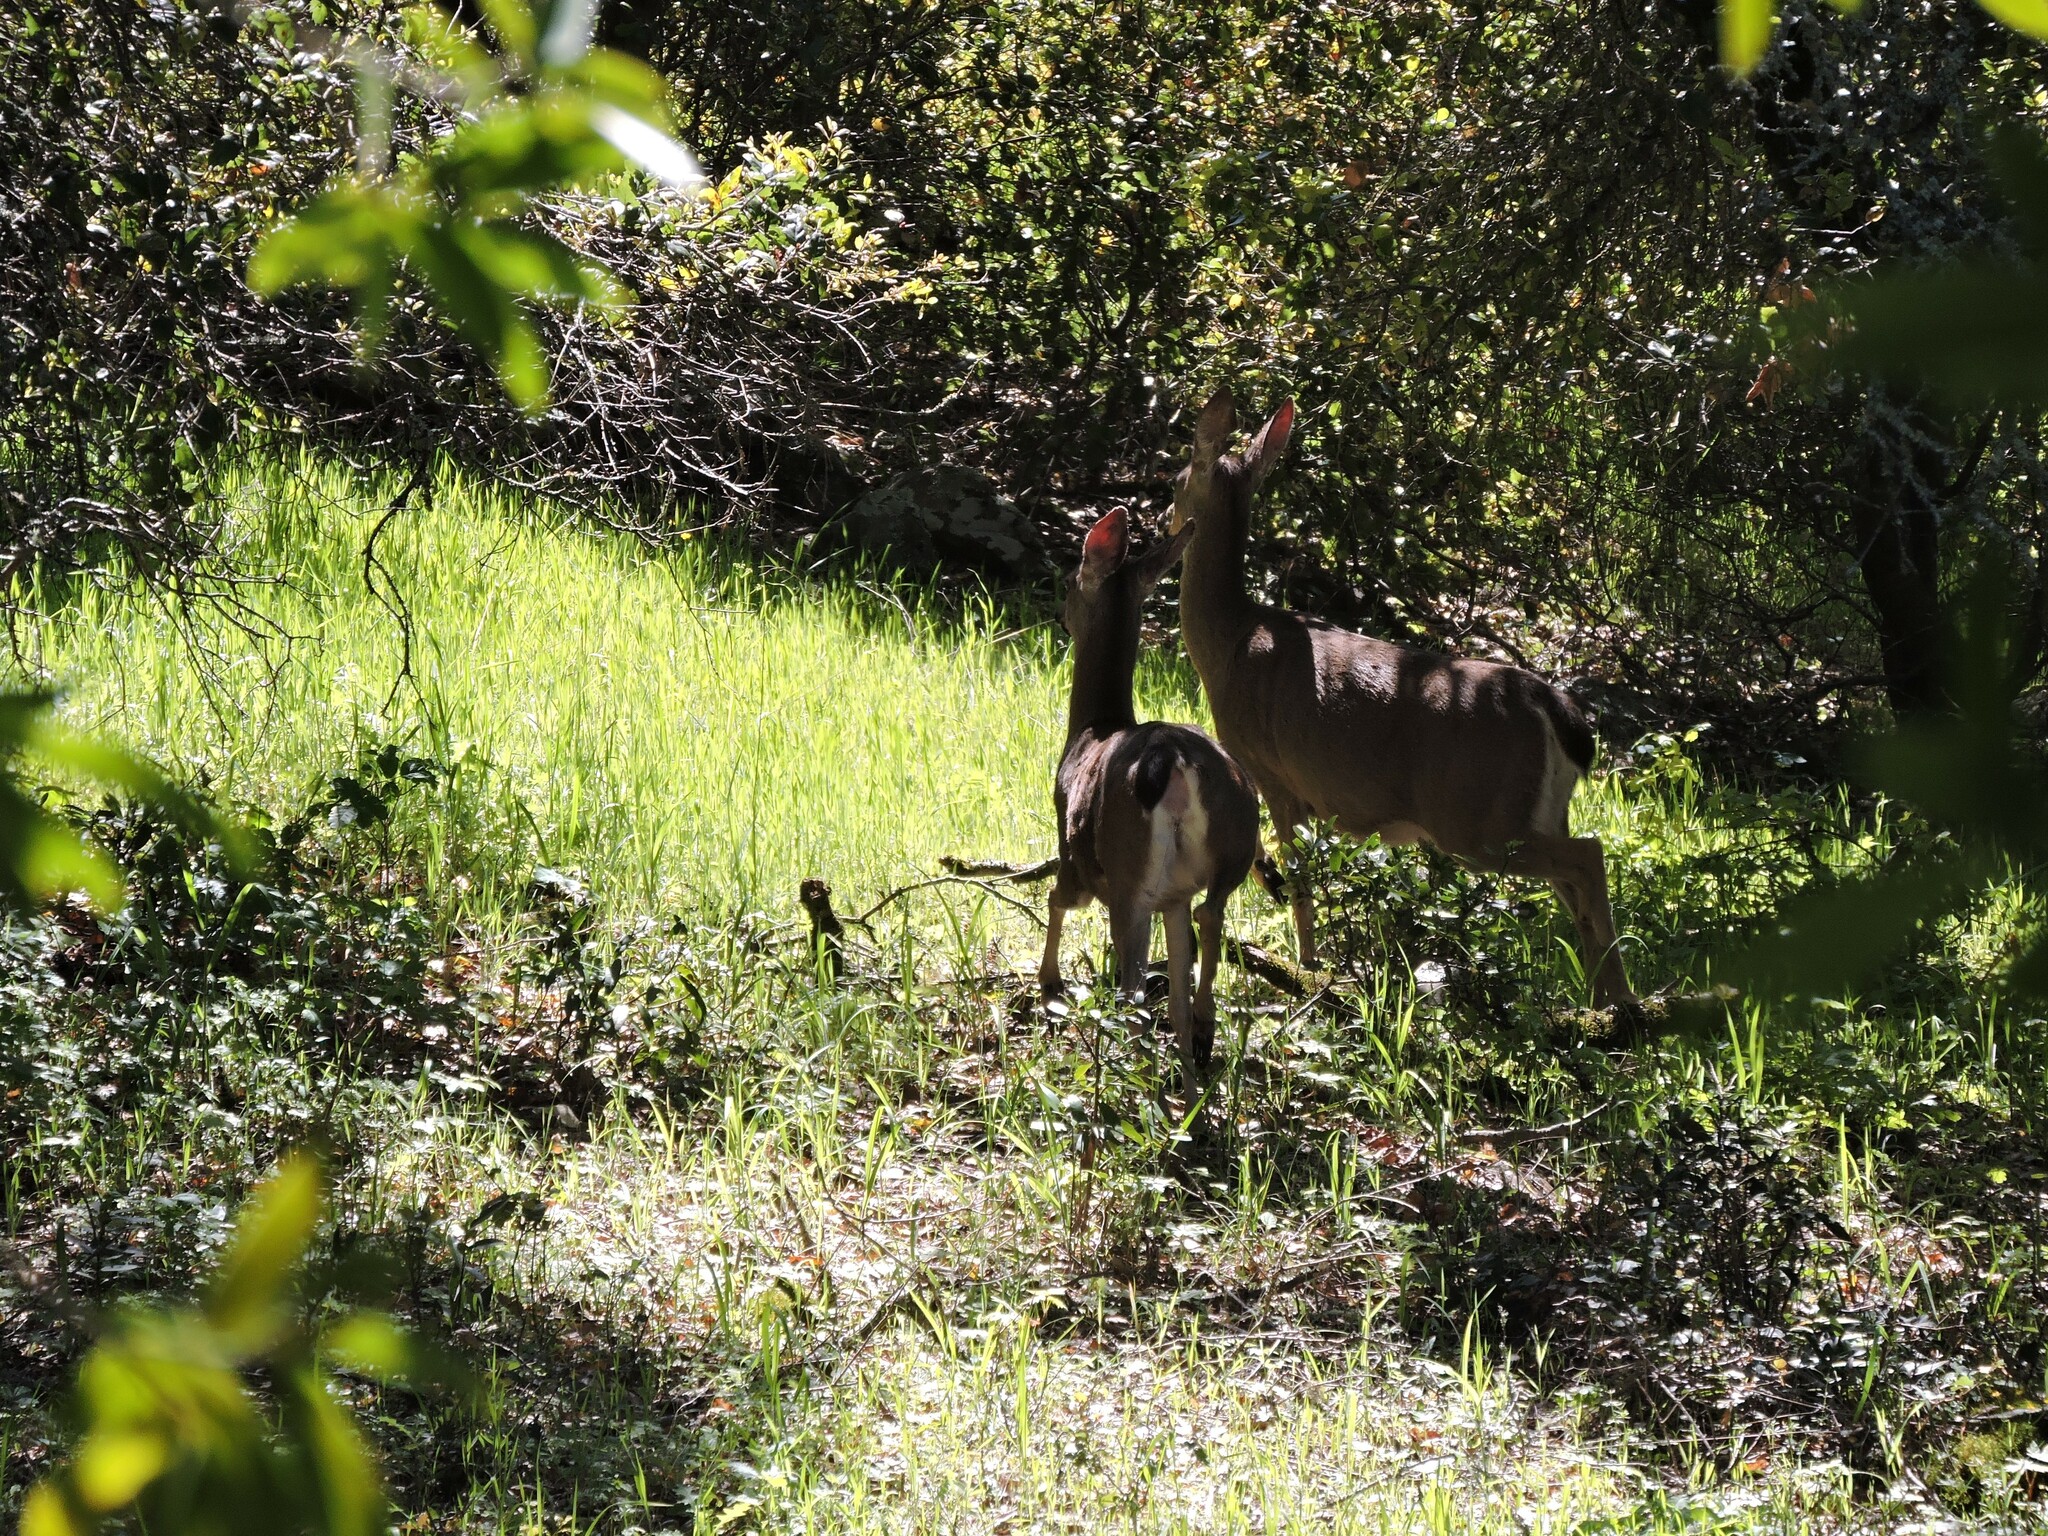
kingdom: Animalia
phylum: Chordata
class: Mammalia
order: Artiodactyla
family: Cervidae
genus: Odocoileus
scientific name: Odocoileus hemionus
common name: Mule deer
